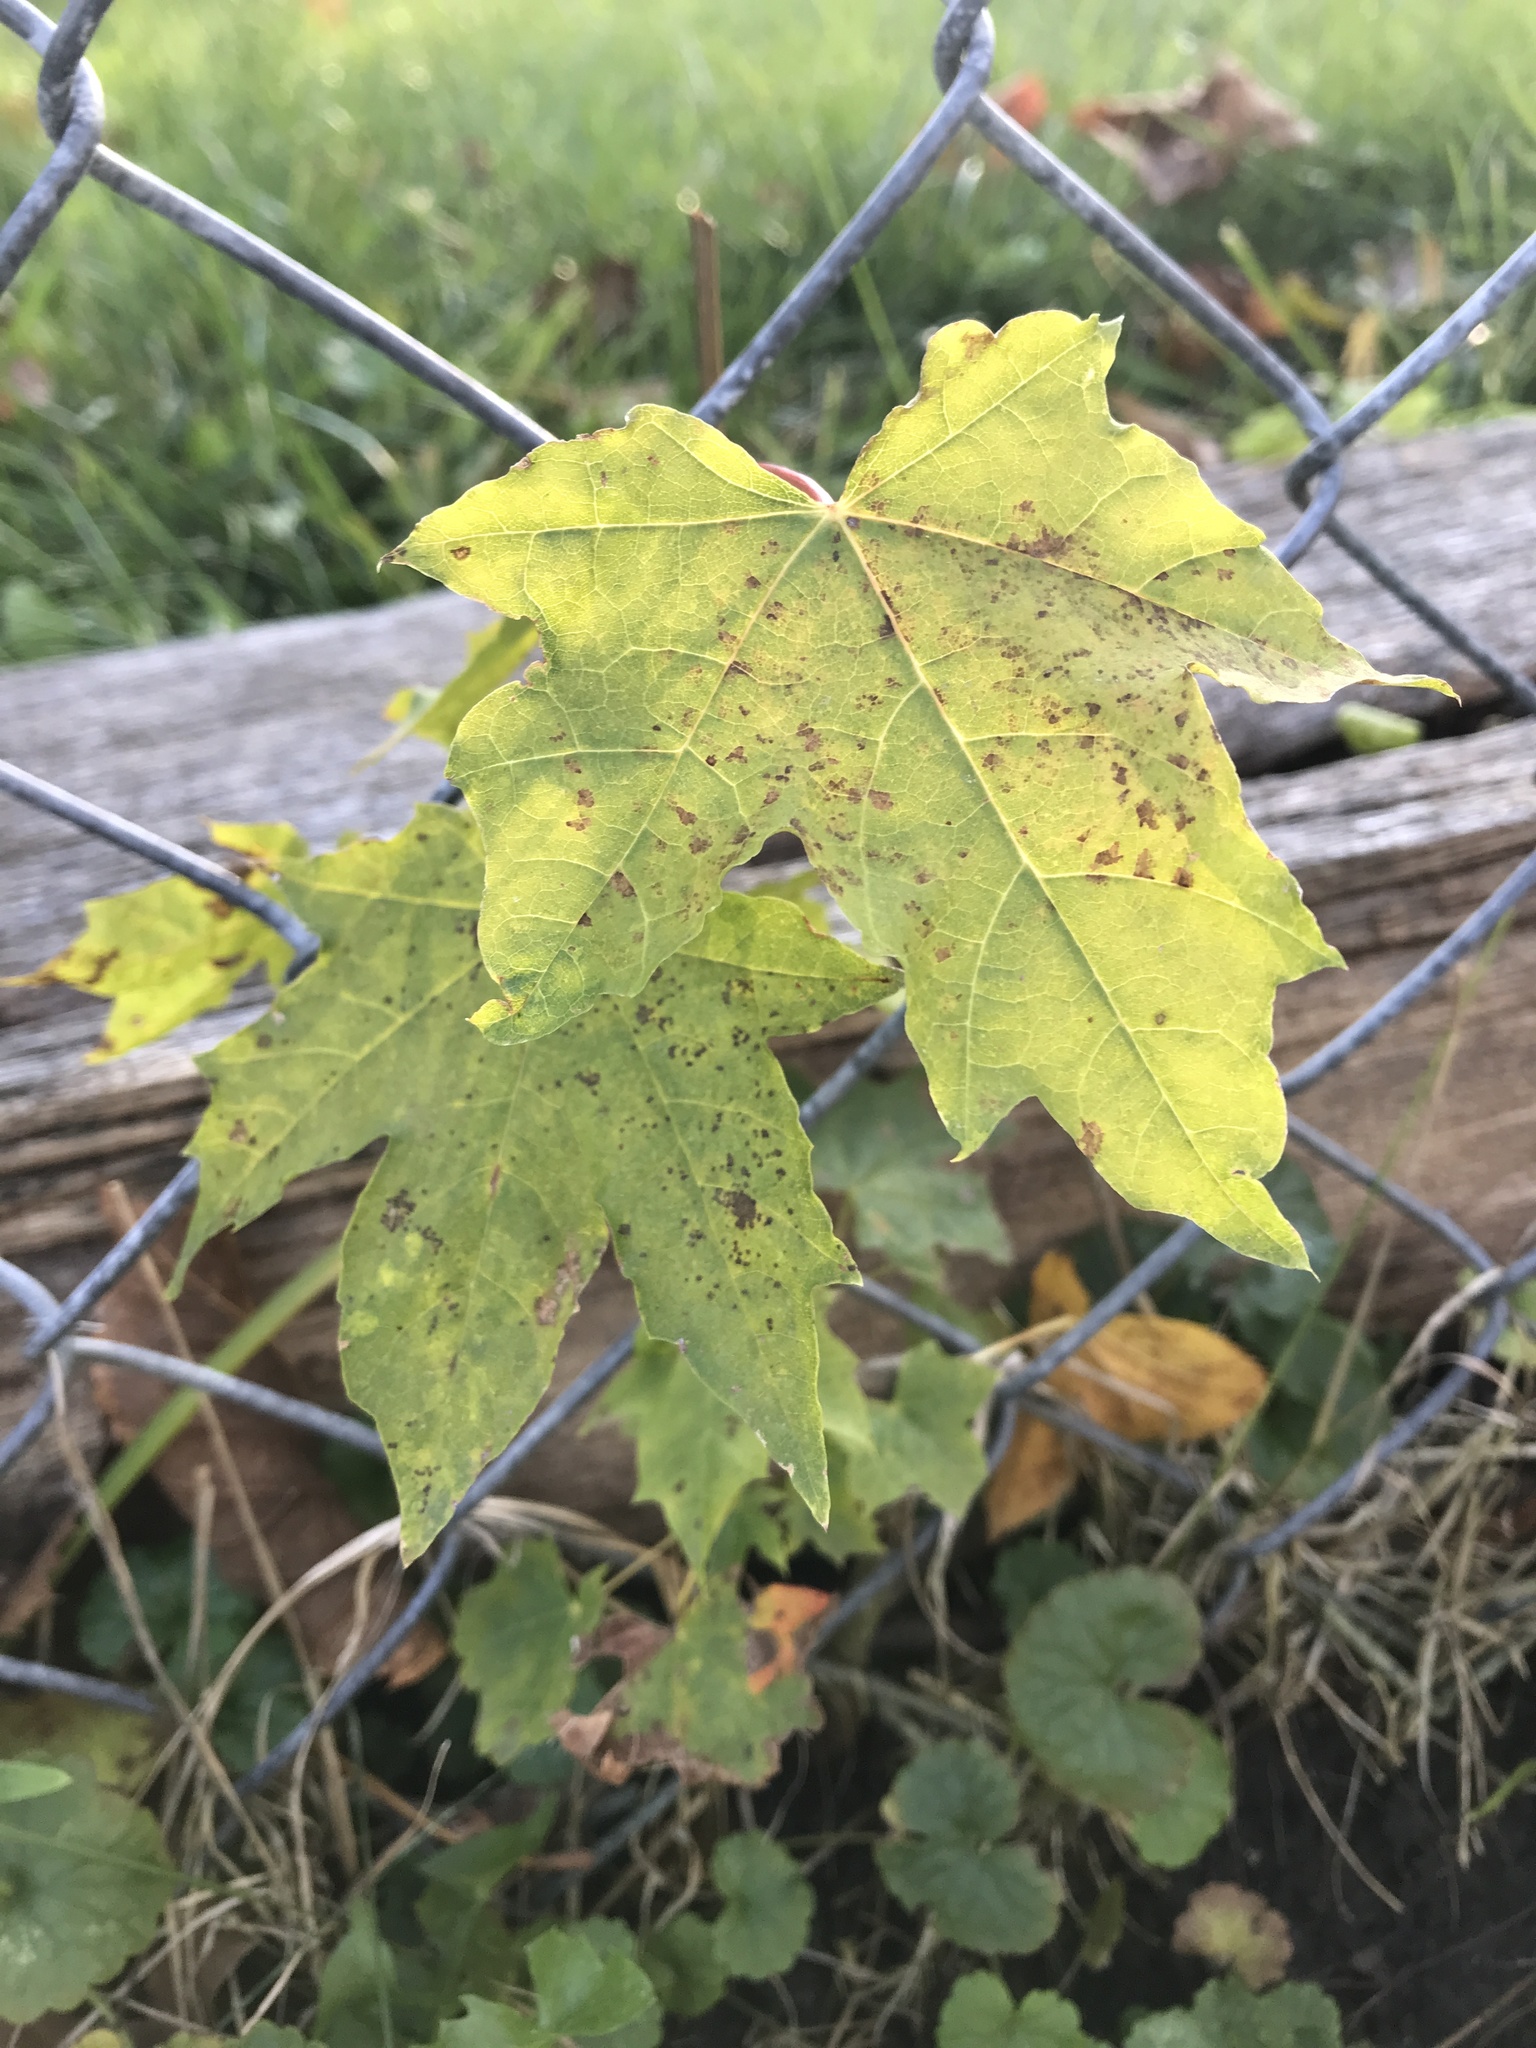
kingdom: Plantae
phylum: Tracheophyta
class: Magnoliopsida
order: Sapindales
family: Sapindaceae
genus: Acer
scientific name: Acer rubrum
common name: Red maple
